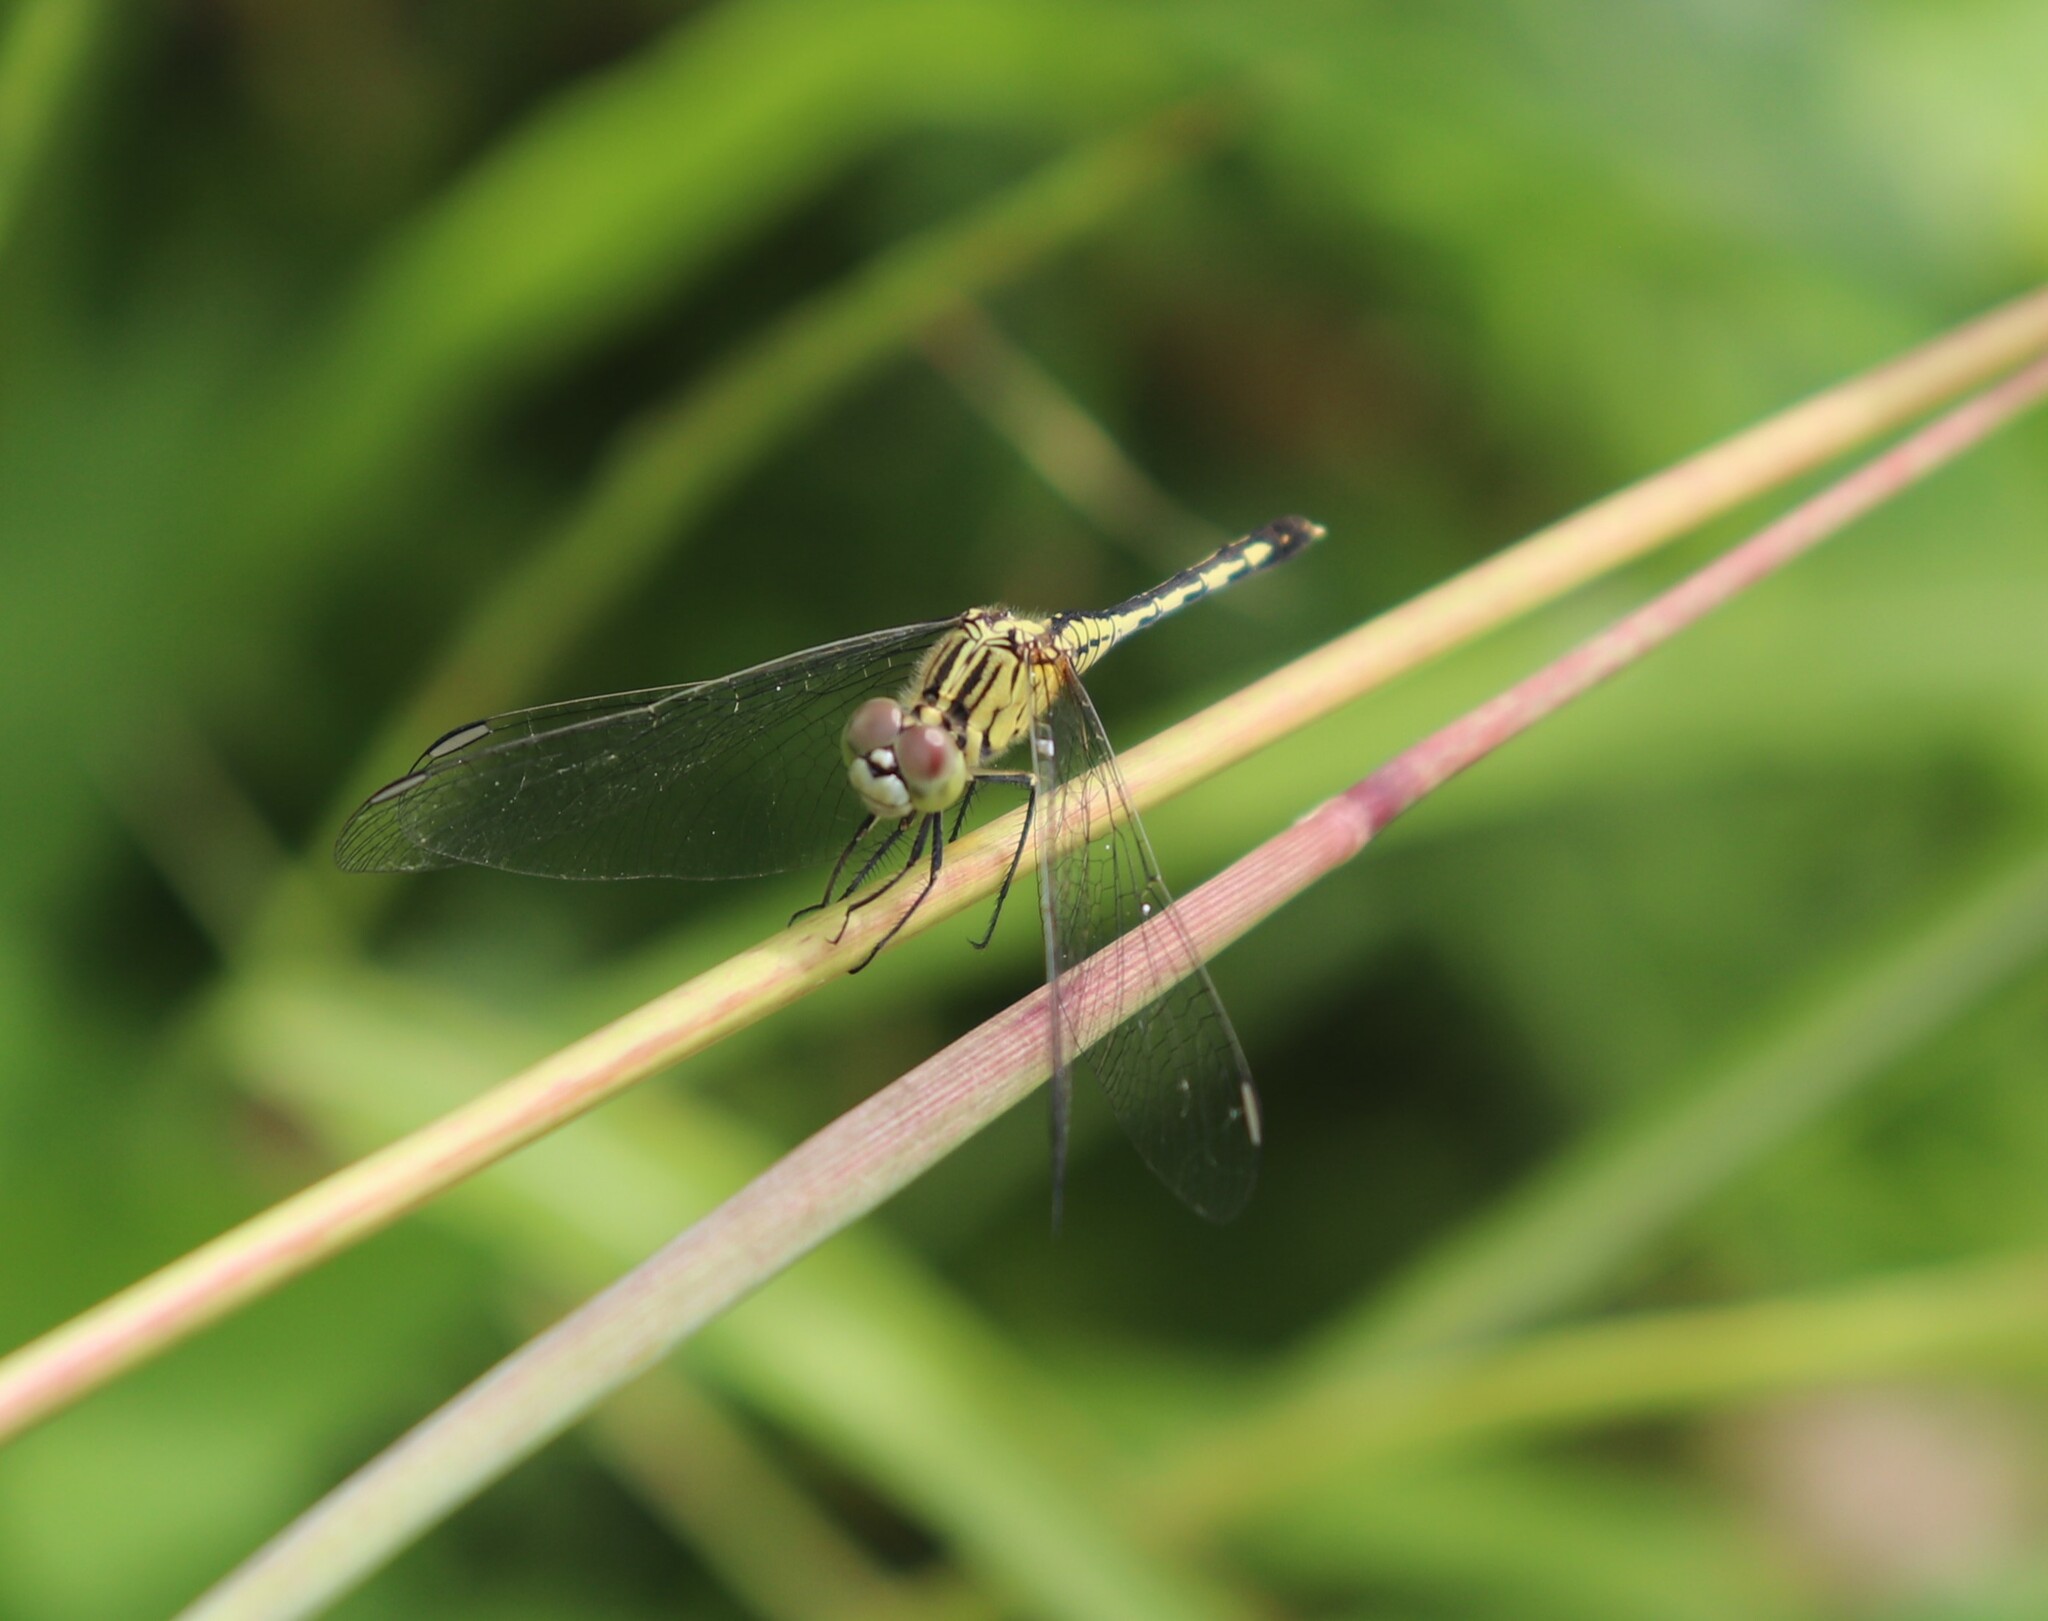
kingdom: Animalia
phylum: Arthropoda
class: Insecta
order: Odonata
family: Libellulidae
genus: Diplacodes
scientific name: Diplacodes trivialis
